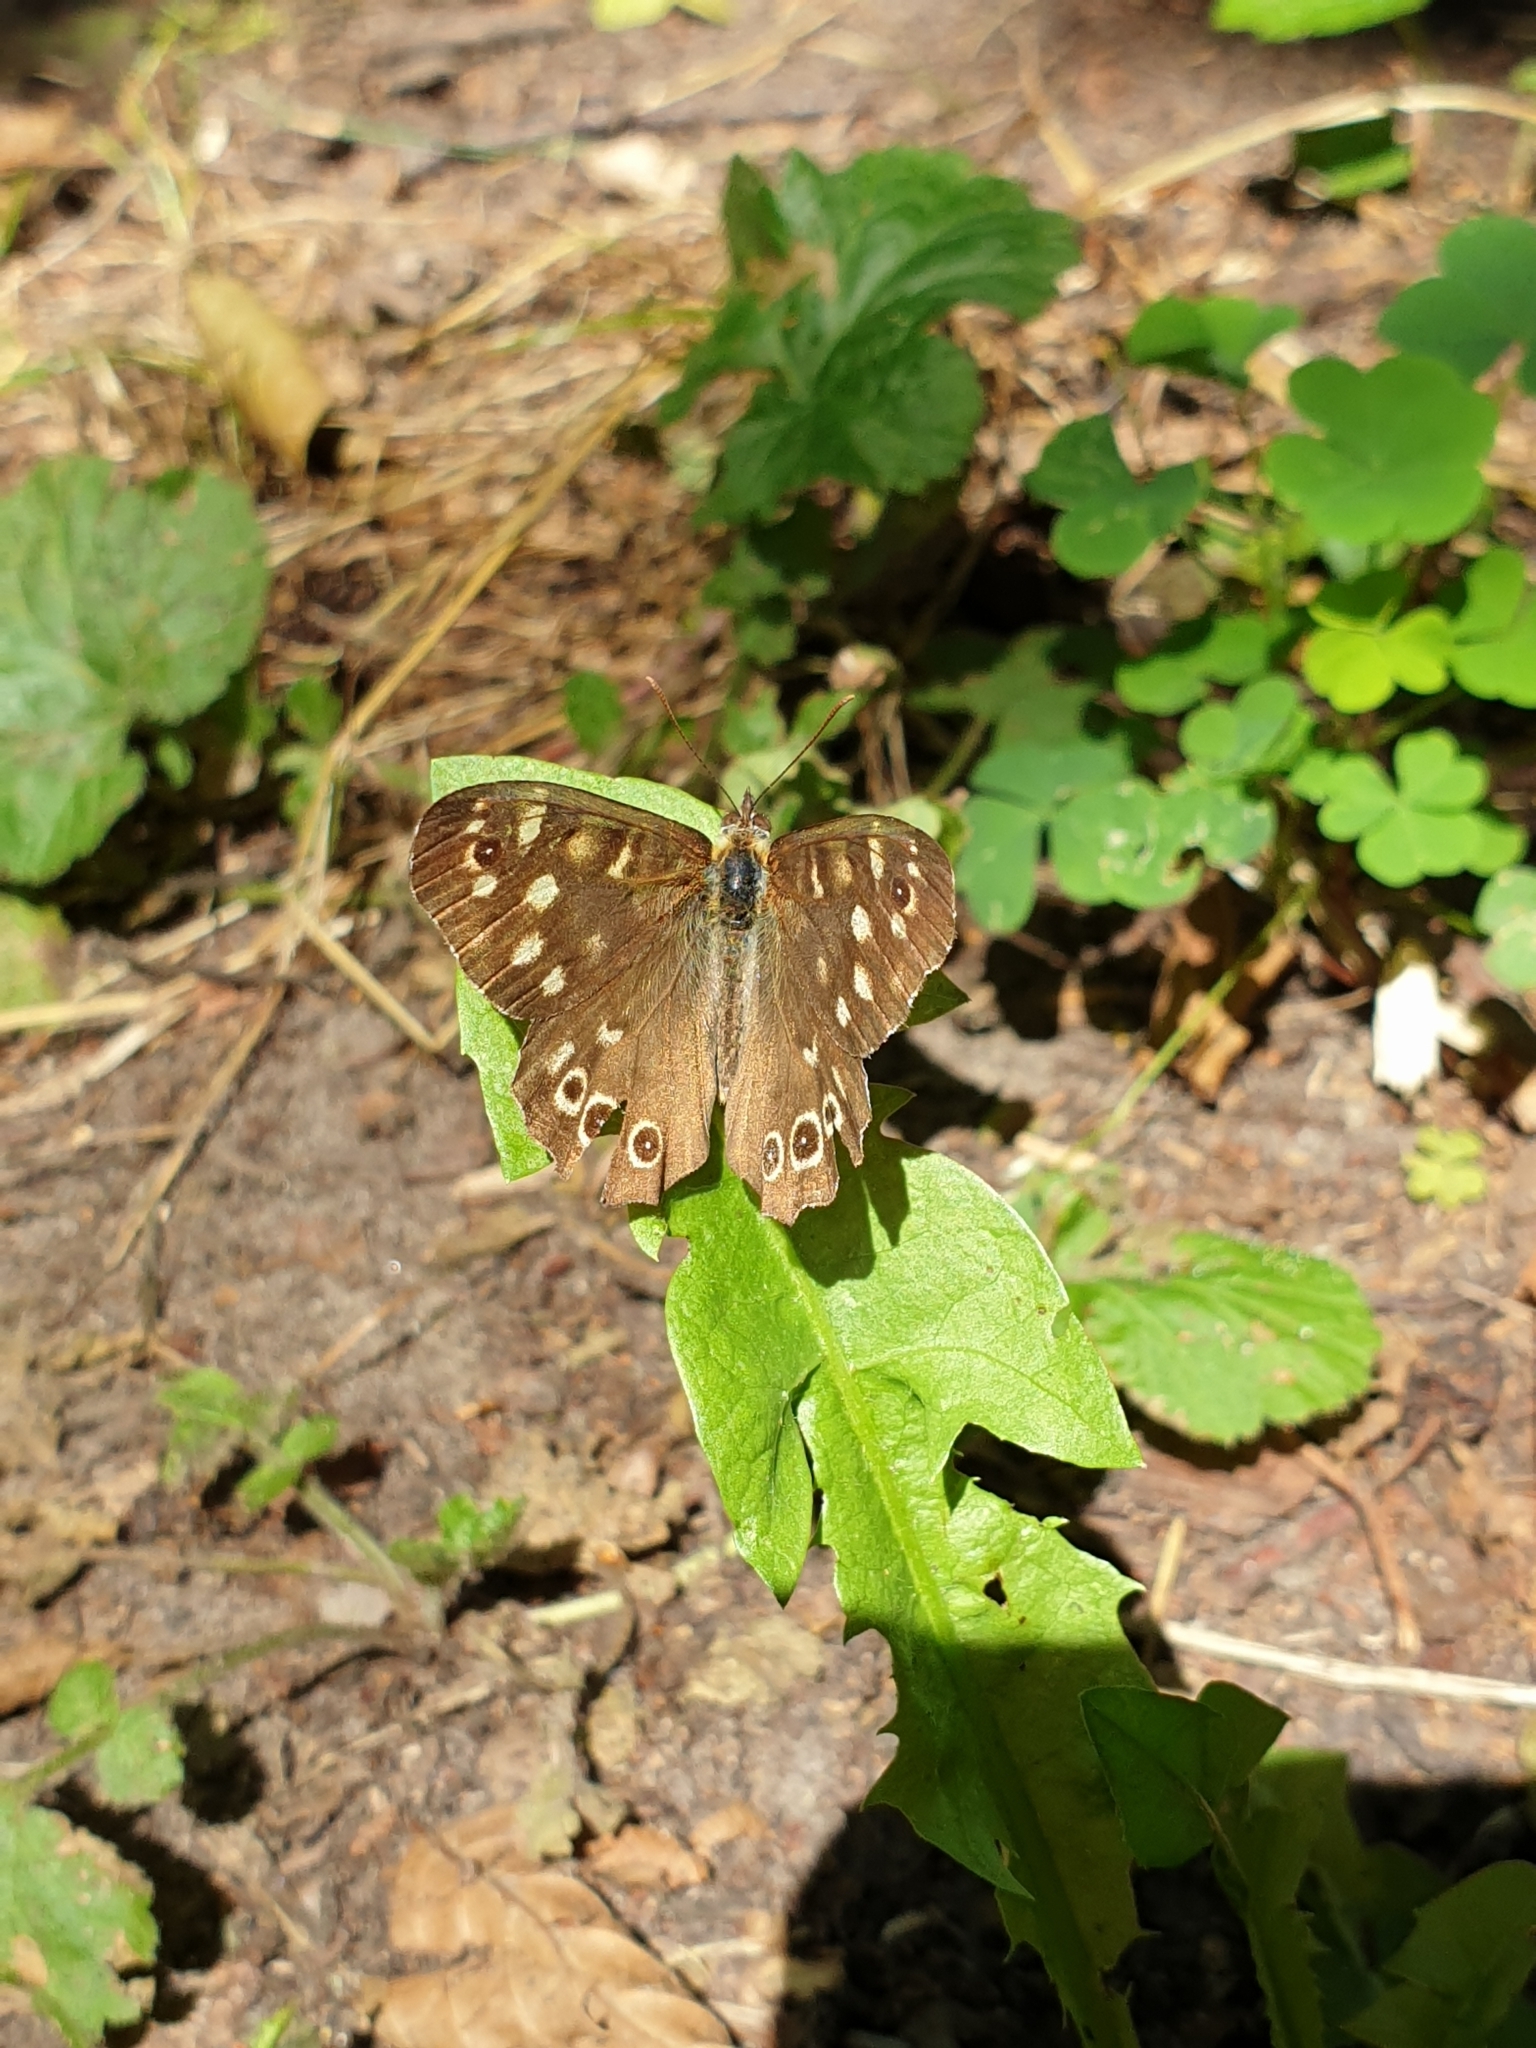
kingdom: Animalia
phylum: Arthropoda
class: Insecta
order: Lepidoptera
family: Nymphalidae
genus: Pararge
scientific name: Pararge aegeria
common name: Speckled wood
